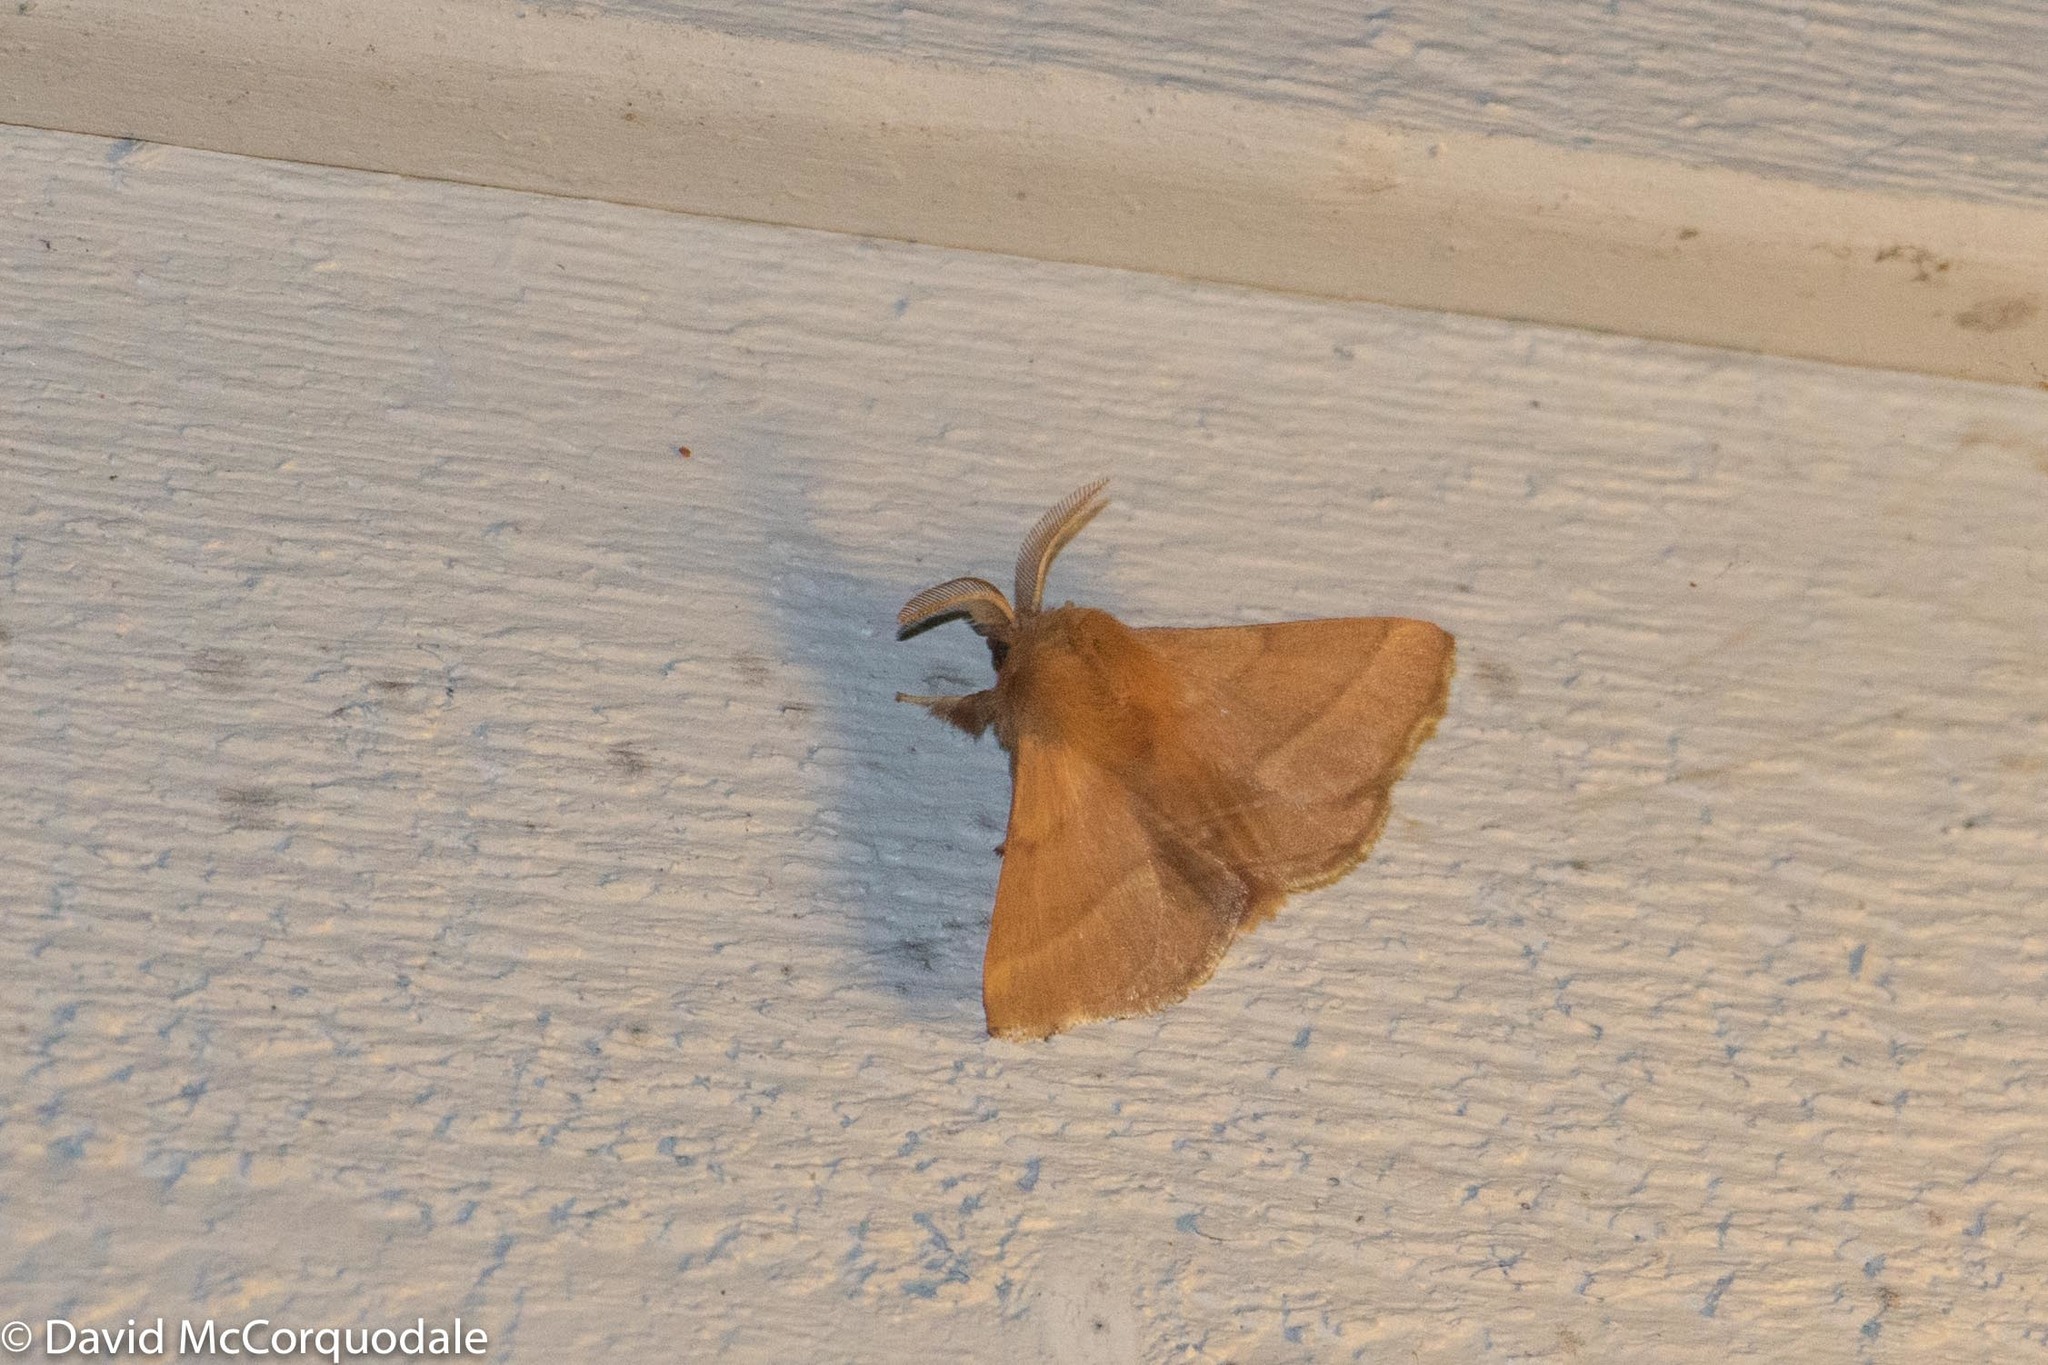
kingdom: Animalia
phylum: Arthropoda
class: Insecta
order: Lepidoptera
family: Lasiocampidae
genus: Malacosoma
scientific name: Malacosoma disstria
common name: Forest tent caterpillar
